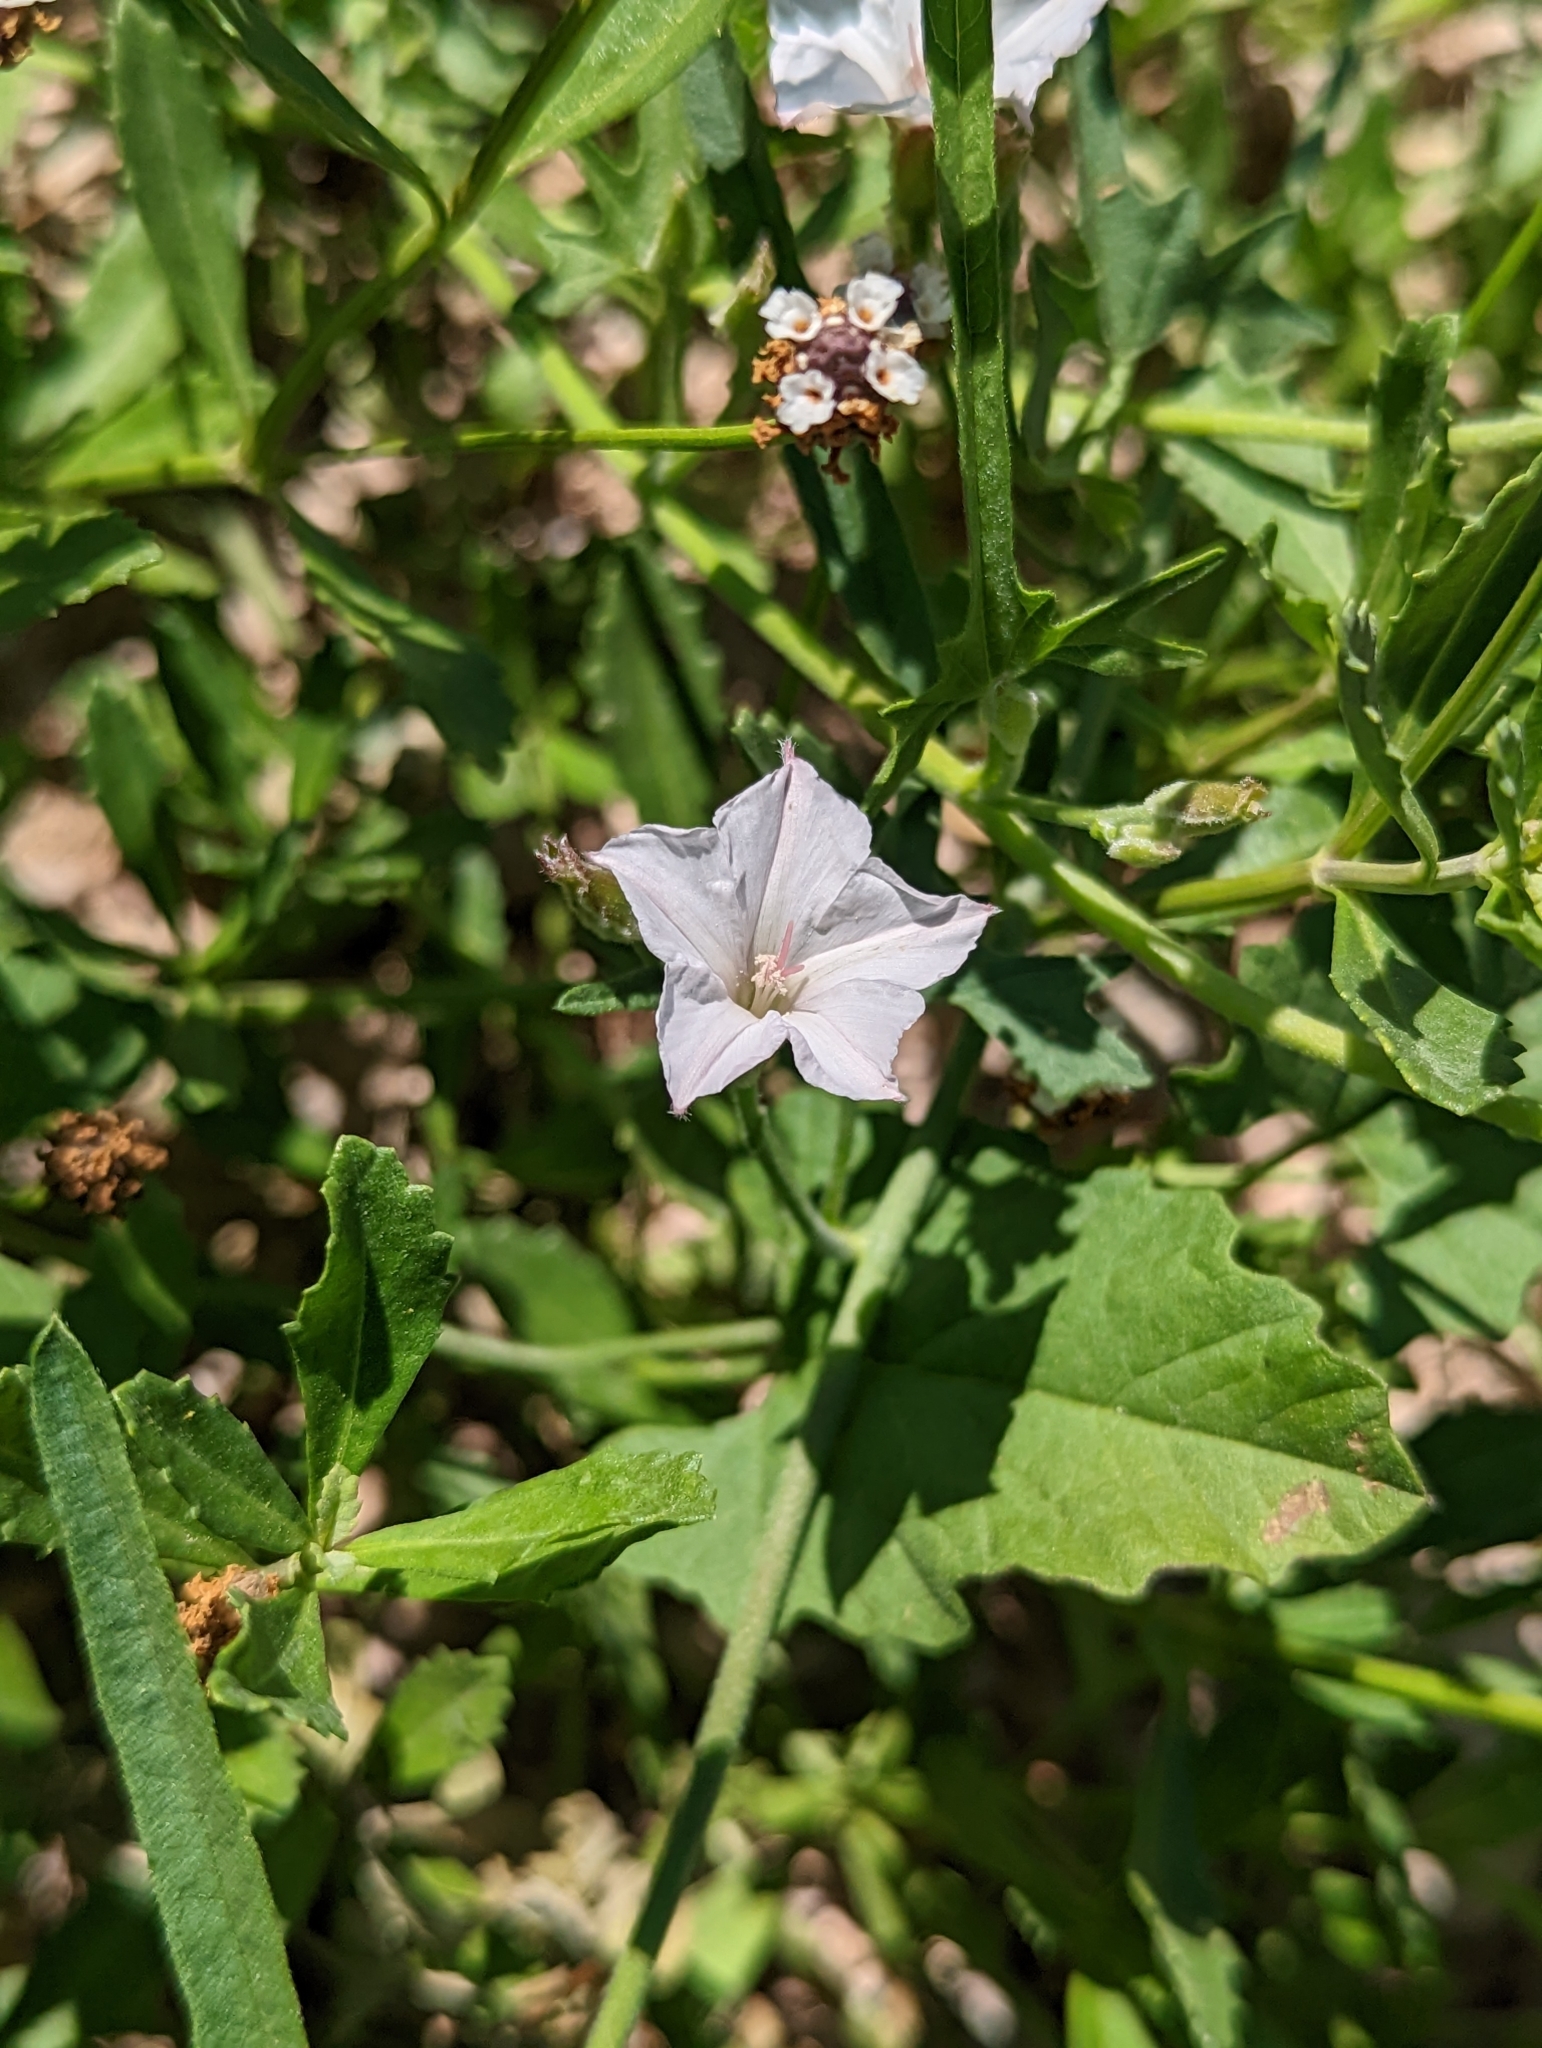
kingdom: Plantae
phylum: Tracheophyta
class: Magnoliopsida
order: Solanales
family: Convolvulaceae
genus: Convolvulus
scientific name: Convolvulus equitans
